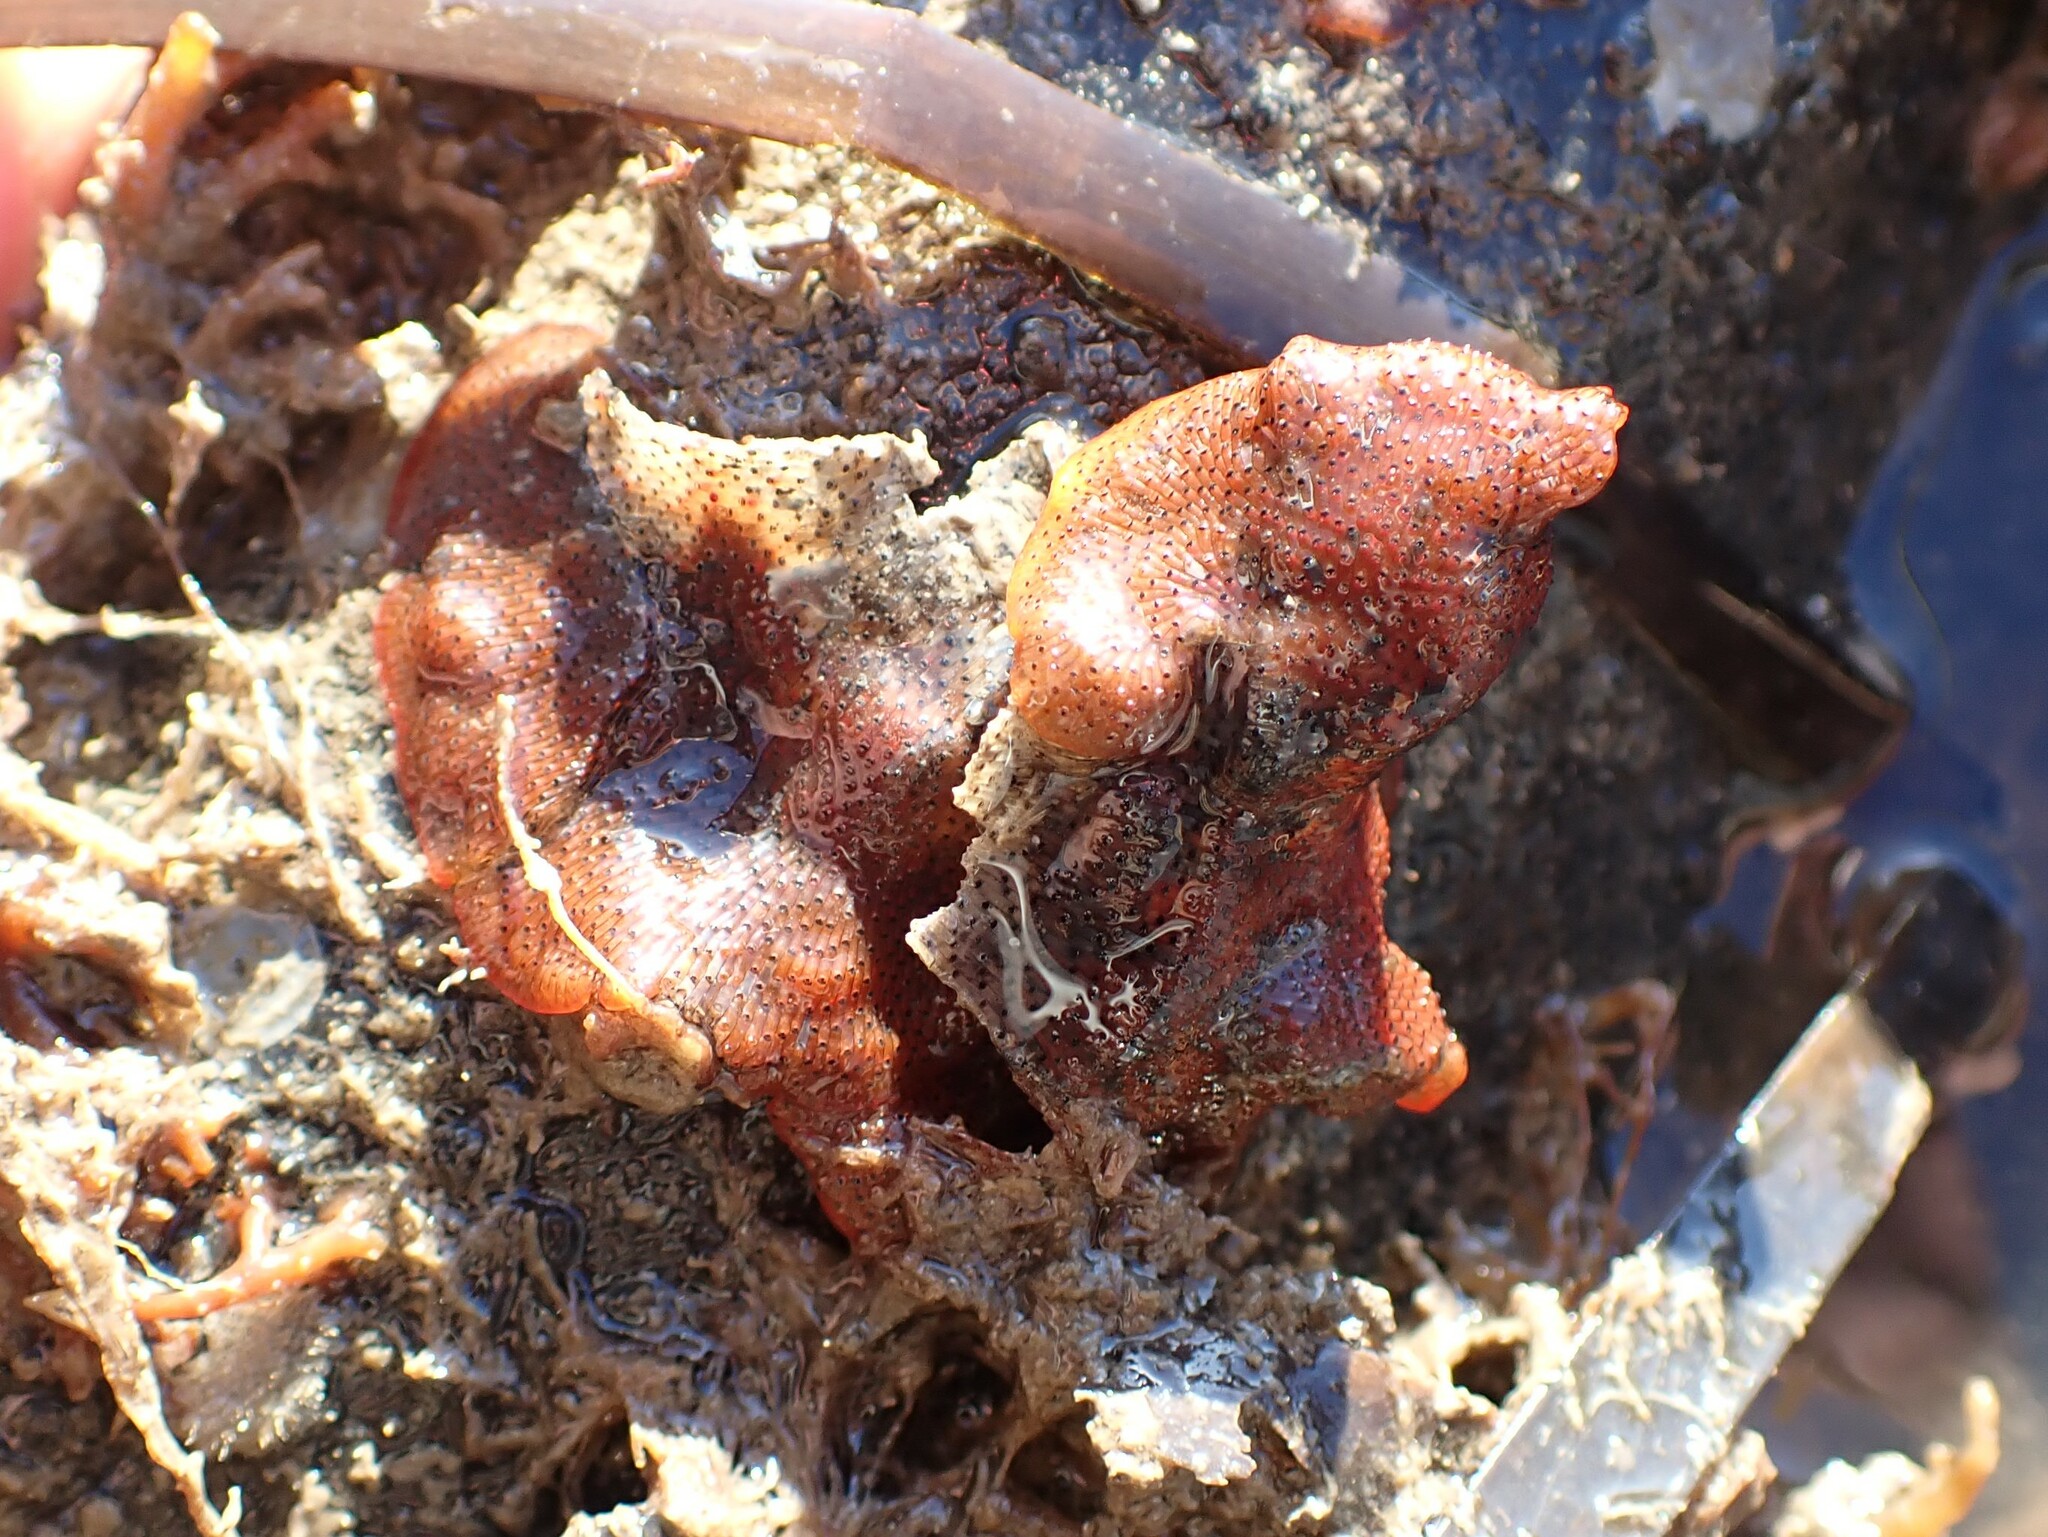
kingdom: Animalia
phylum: Bryozoa
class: Gymnolaemata
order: Cheilostomatida
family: Watersiporidae
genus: Watersipora
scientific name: Watersipora subtorquata
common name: Bryozoan
